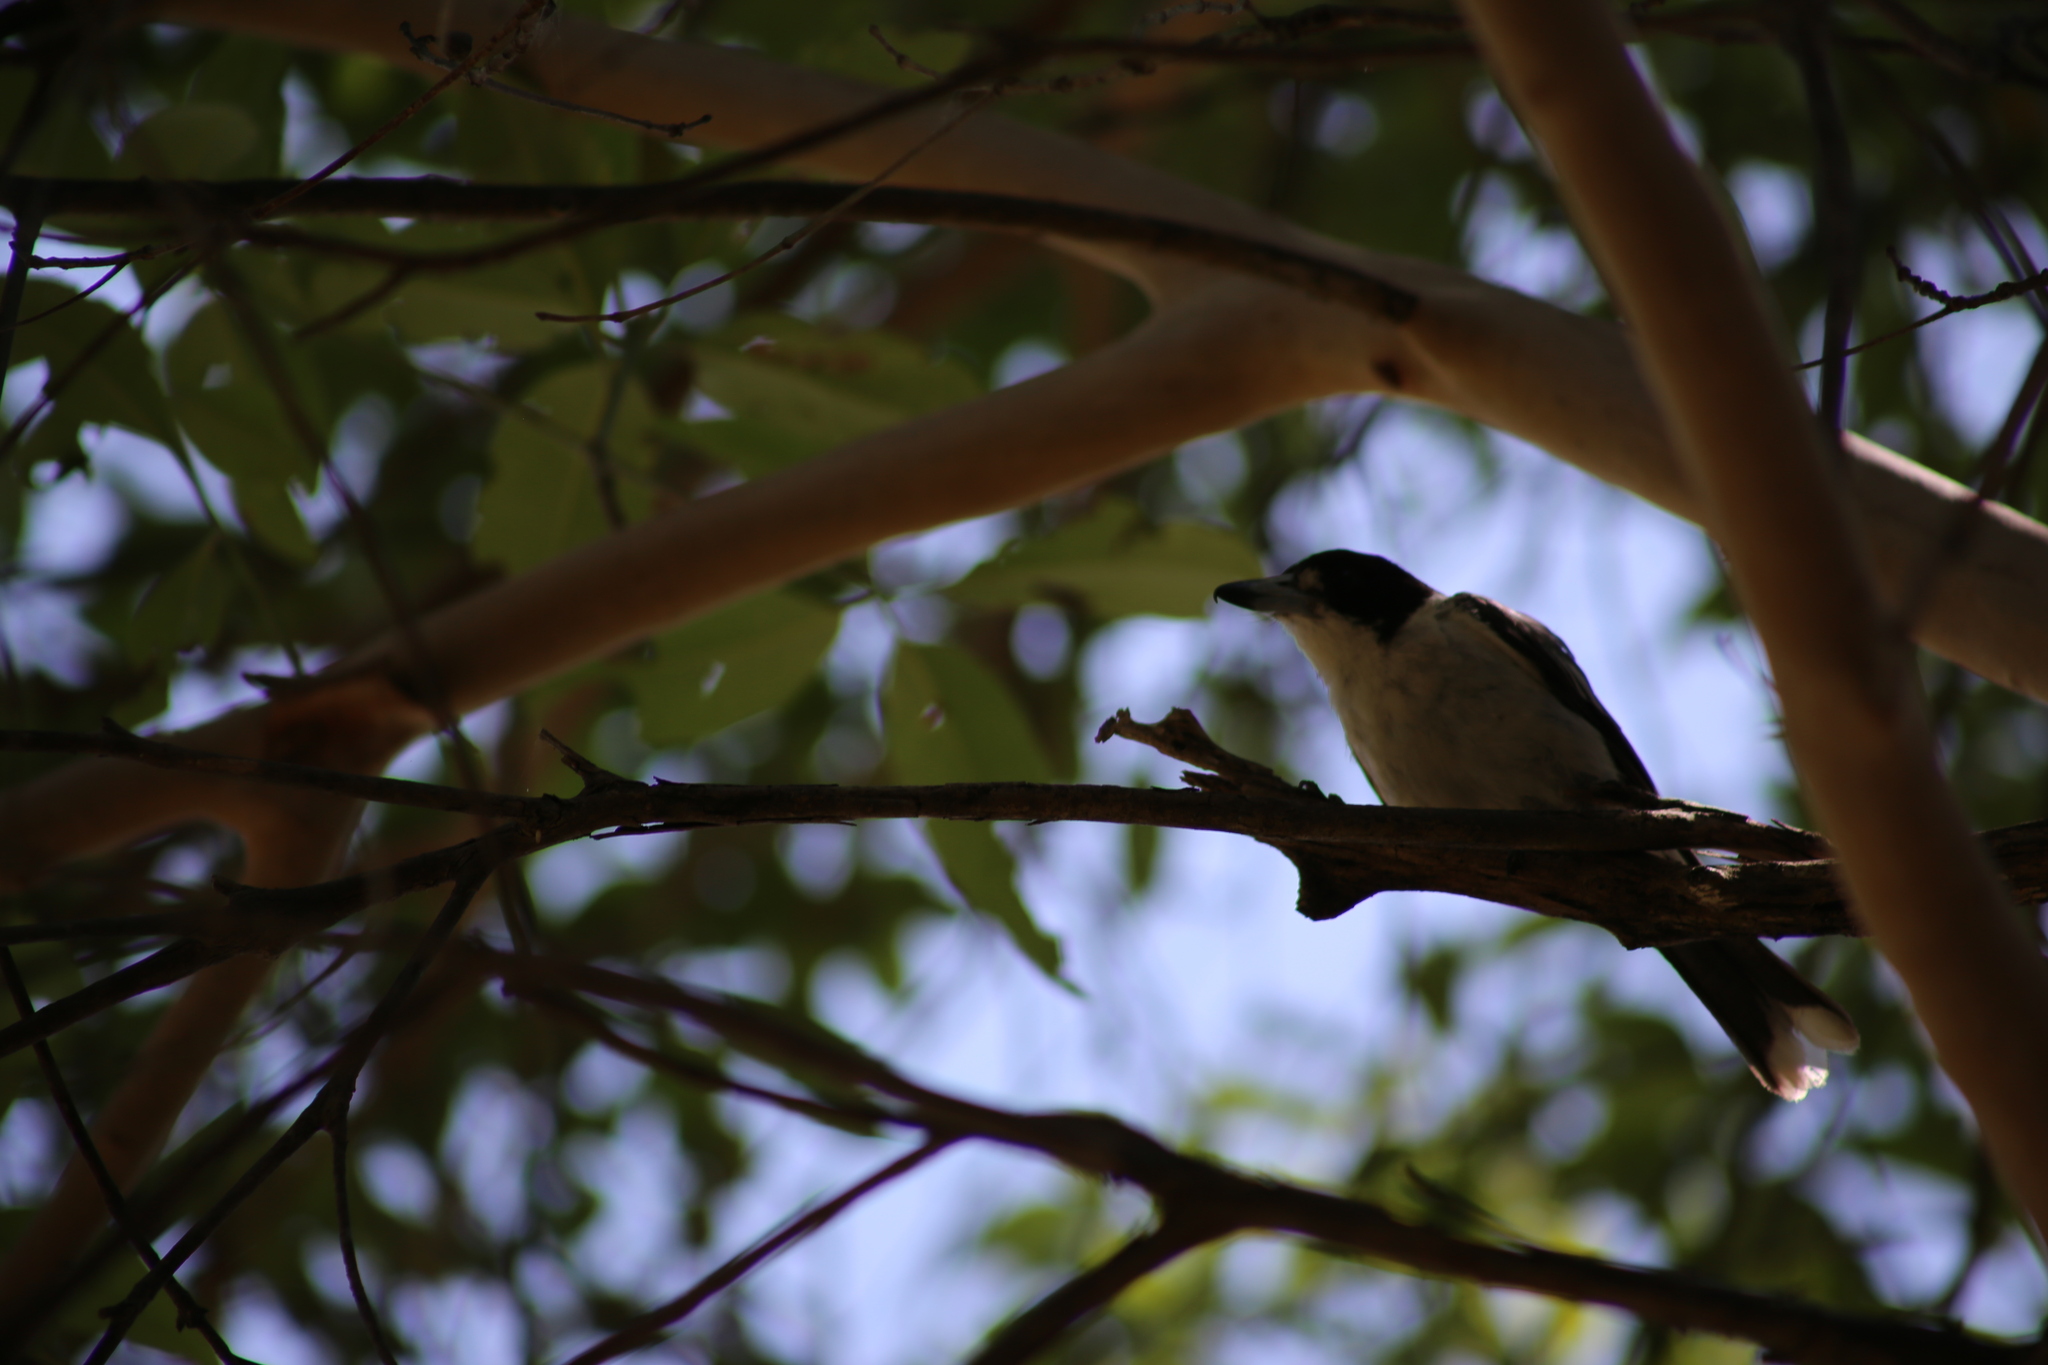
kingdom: Animalia
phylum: Chordata
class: Aves
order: Passeriformes
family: Cracticidae
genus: Cracticus
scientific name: Cracticus torquatus
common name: Grey butcherbird
